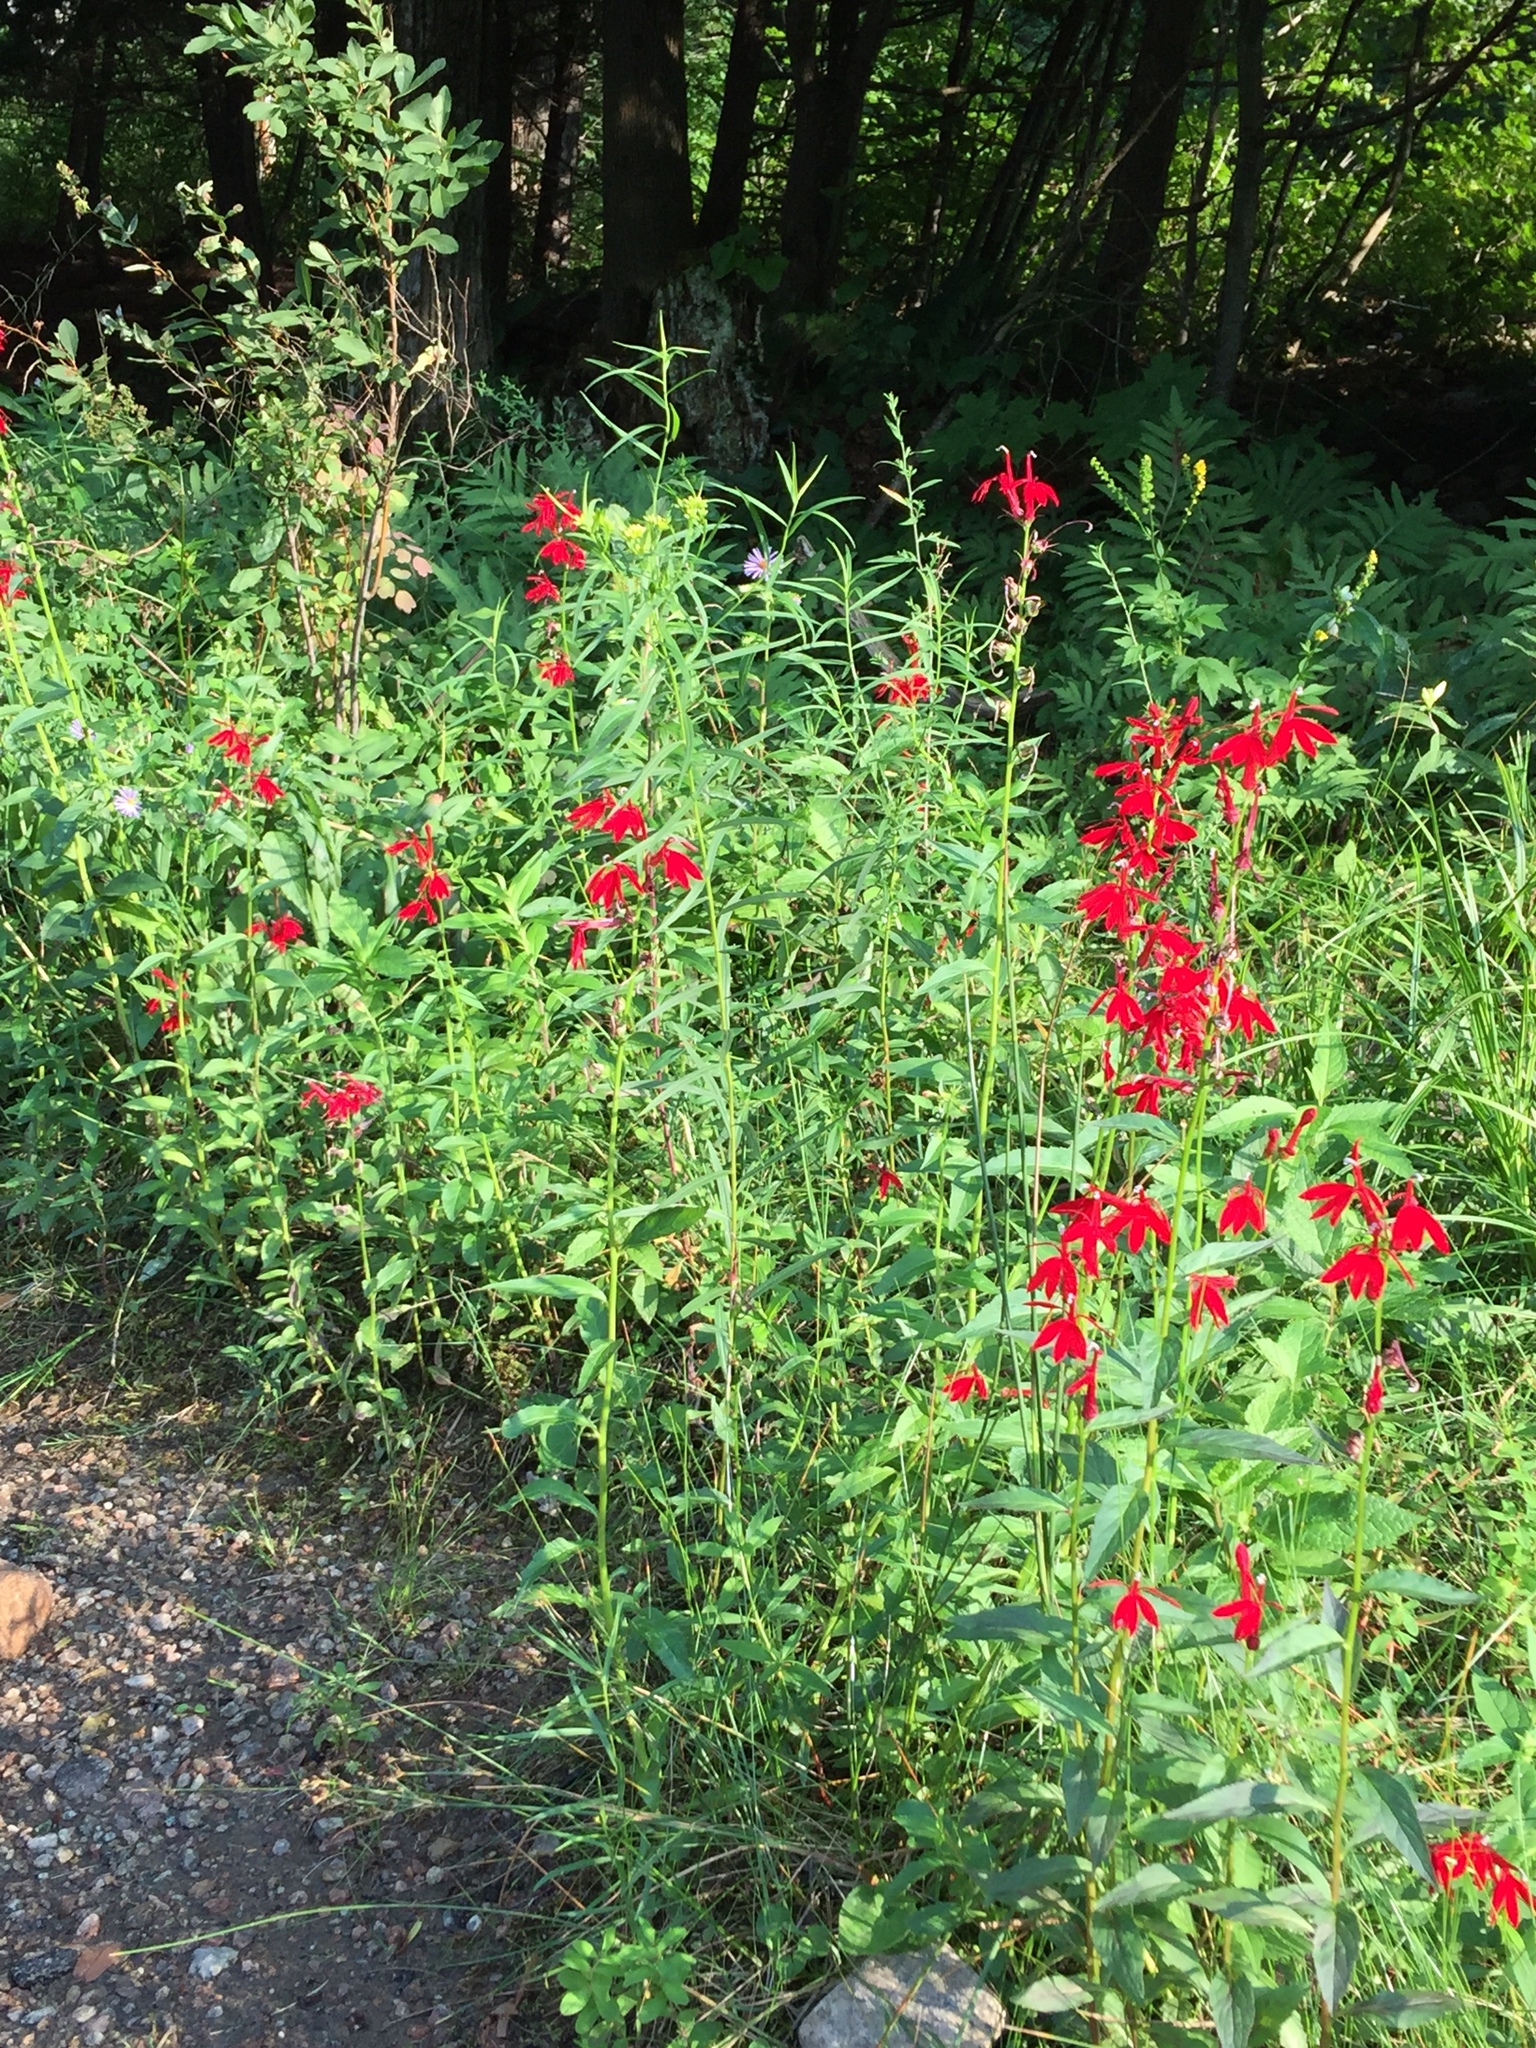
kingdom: Plantae
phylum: Tracheophyta
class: Magnoliopsida
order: Asterales
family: Campanulaceae
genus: Lobelia
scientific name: Lobelia cardinalis
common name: Cardinal flower
